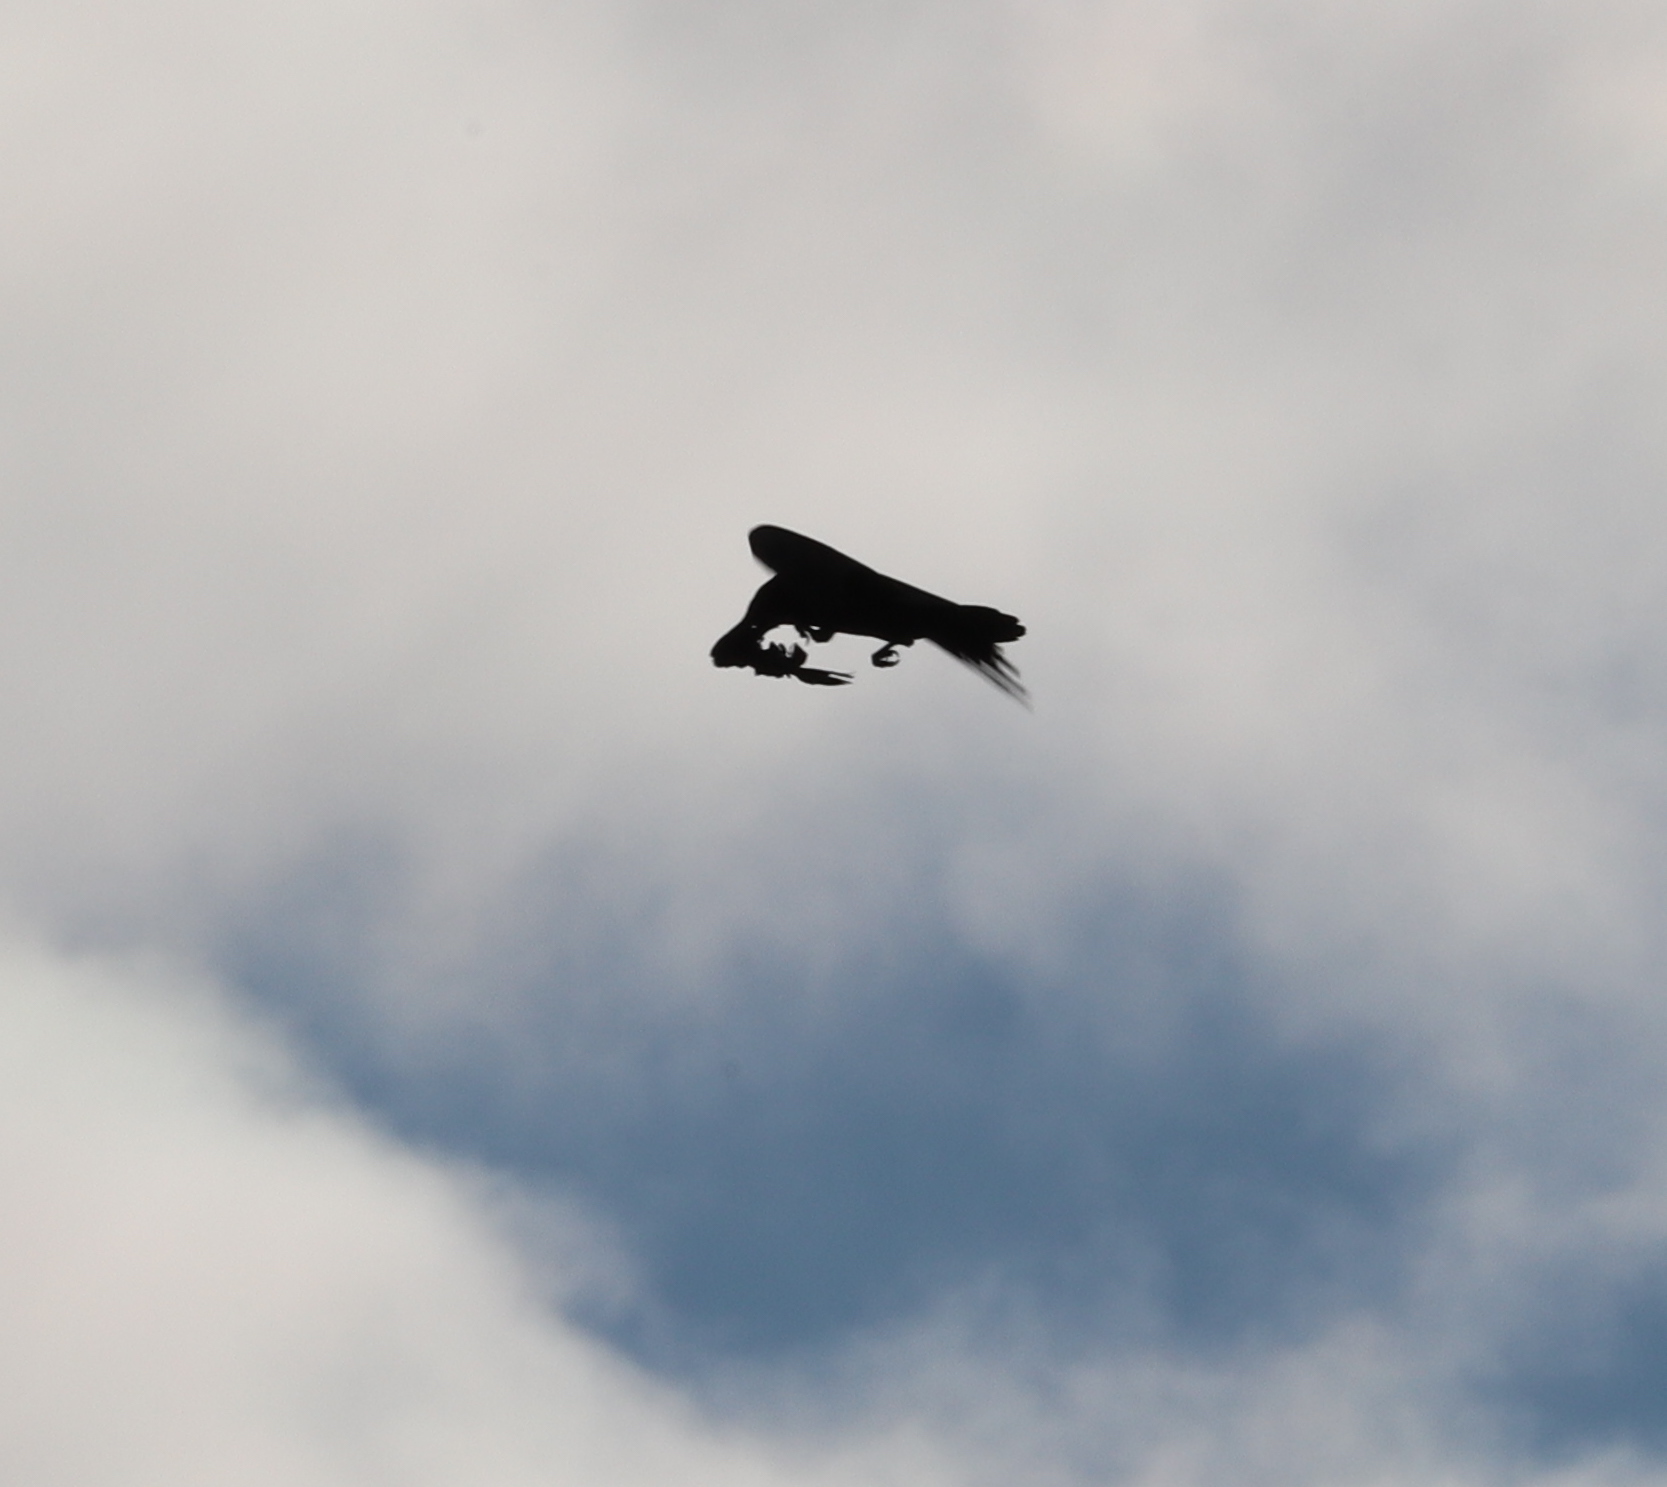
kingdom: Animalia
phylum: Chordata
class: Aves
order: Passeriformes
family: Corvidae
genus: Corvus
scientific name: Corvus
